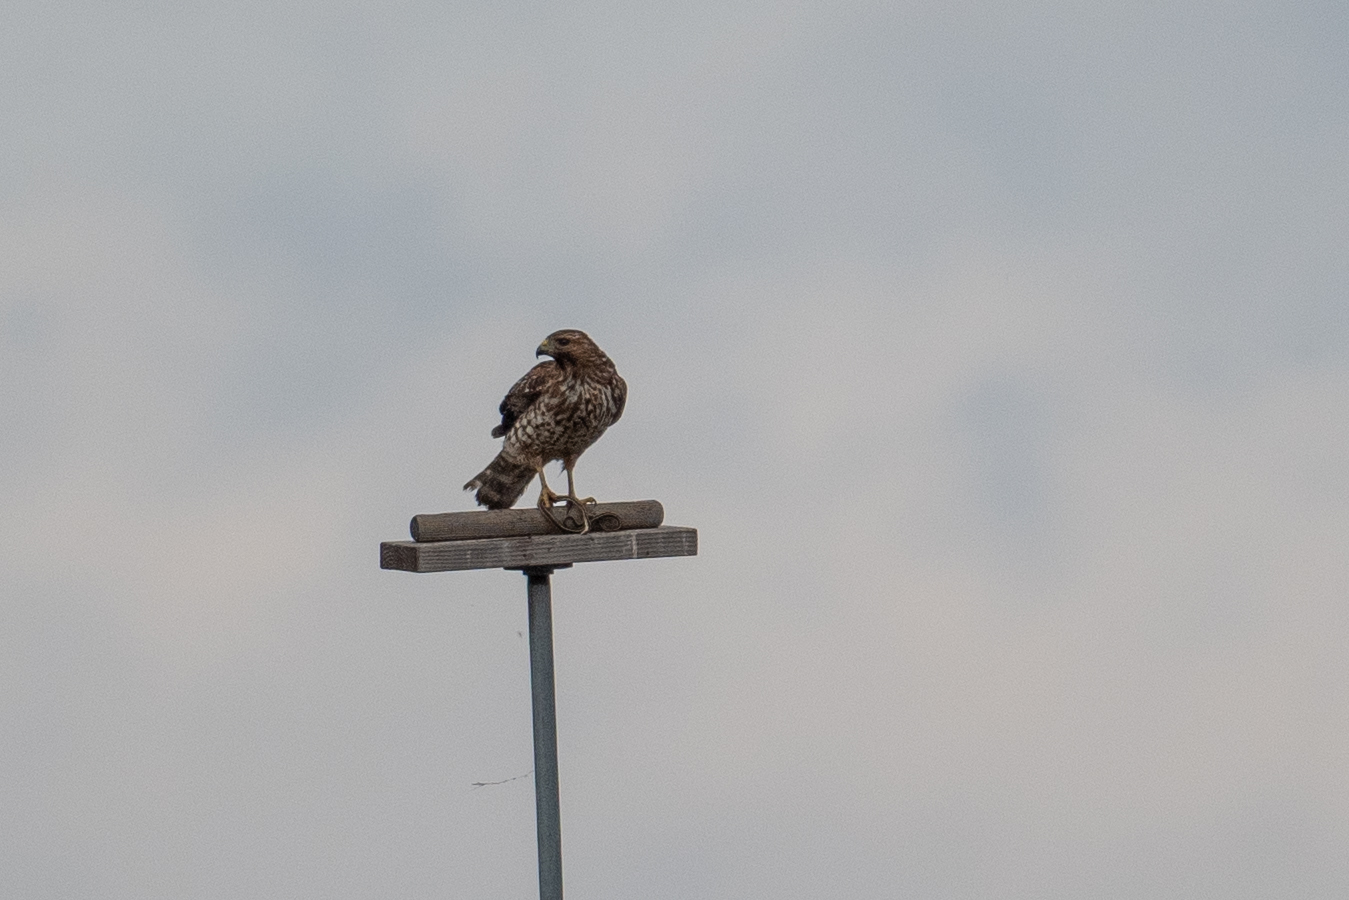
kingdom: Animalia
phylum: Chordata
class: Aves
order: Accipitriformes
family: Accipitridae
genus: Buteo
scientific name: Buteo lineatus
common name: Red-shouldered hawk
